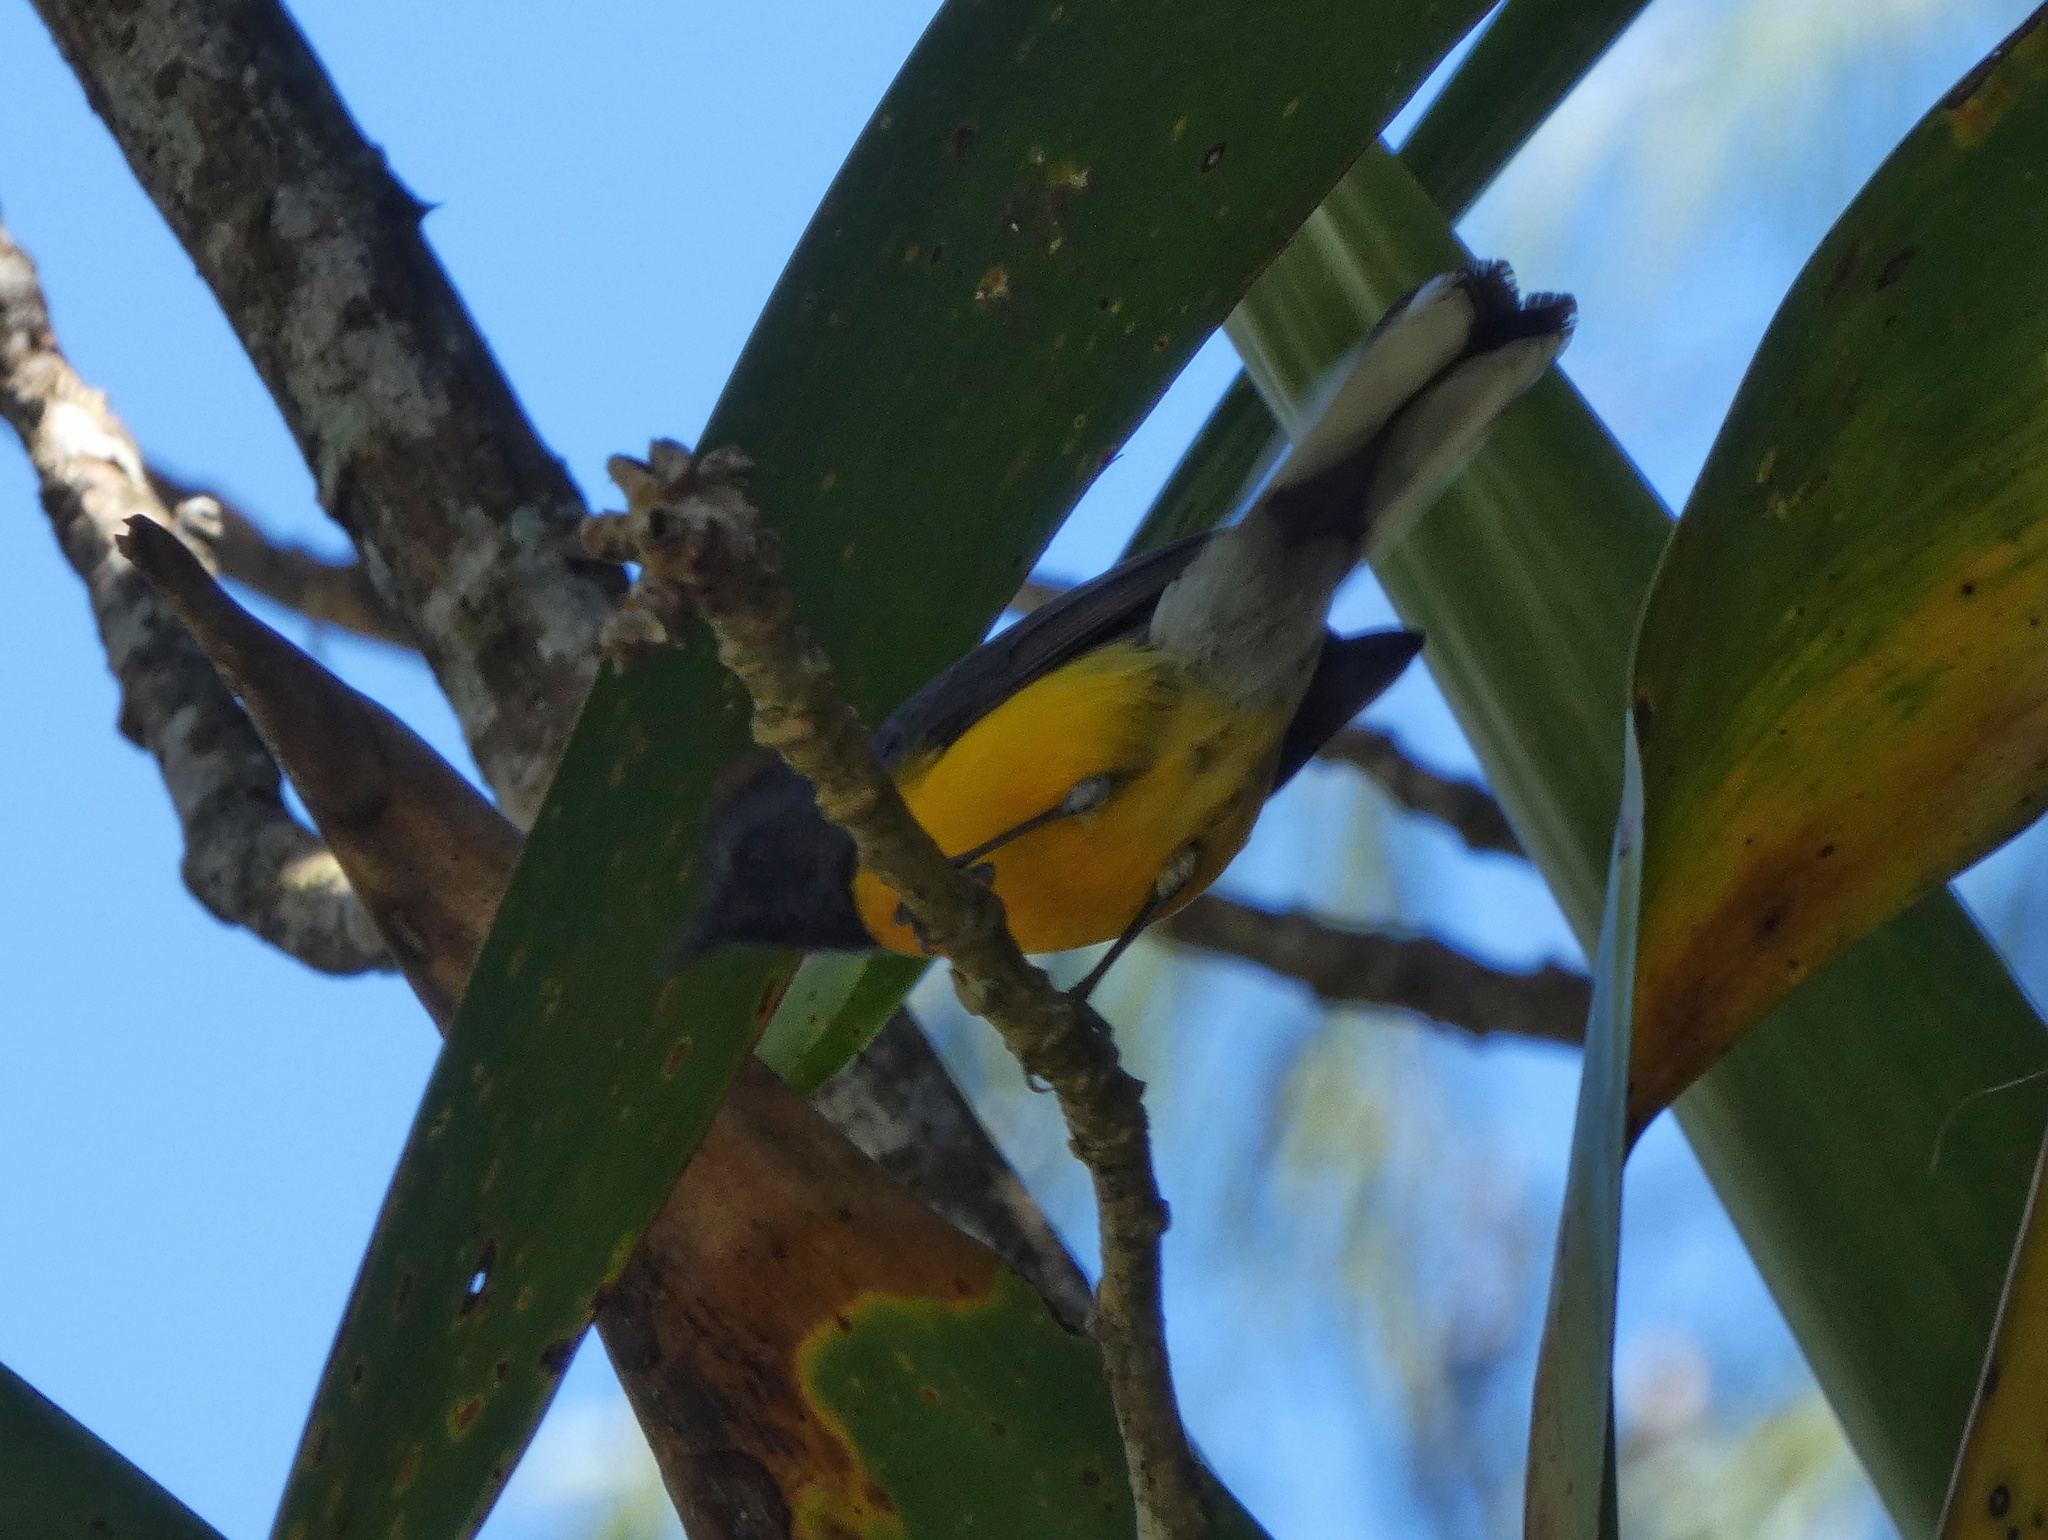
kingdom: Animalia
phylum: Chordata
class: Aves
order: Passeriformes
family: Parulidae
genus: Myioborus
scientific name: Myioborus miniatus
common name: Slate-throated redstart
